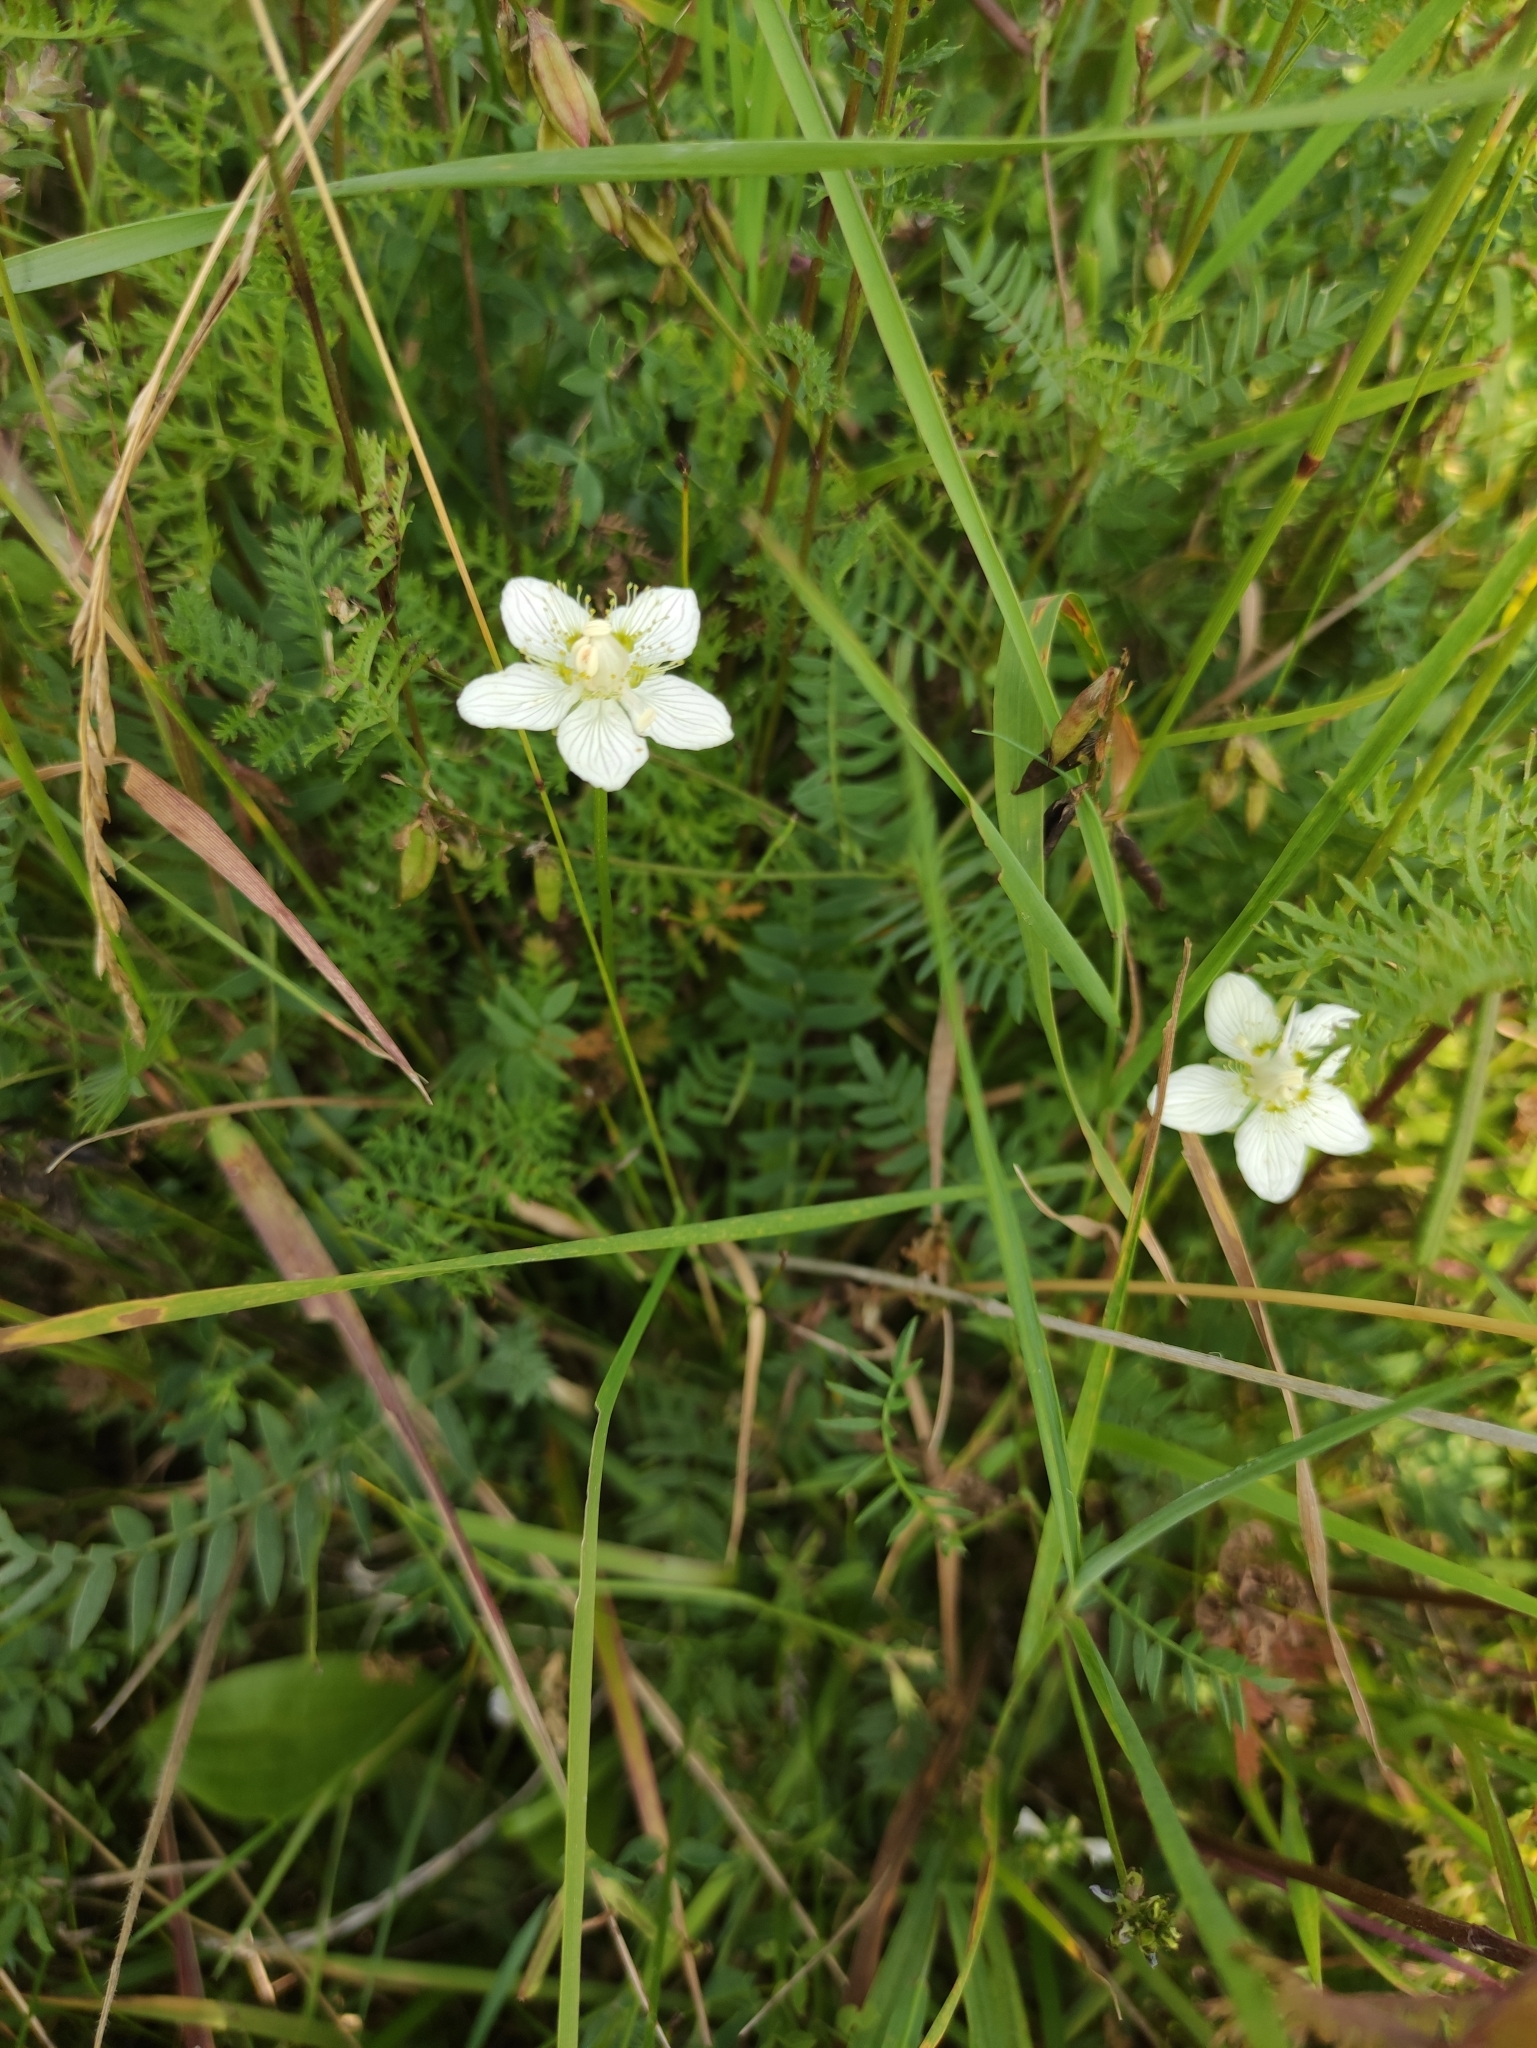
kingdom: Plantae
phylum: Tracheophyta
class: Magnoliopsida
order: Celastrales
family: Parnassiaceae
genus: Parnassia
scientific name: Parnassia palustris
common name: Grass-of-parnassus
